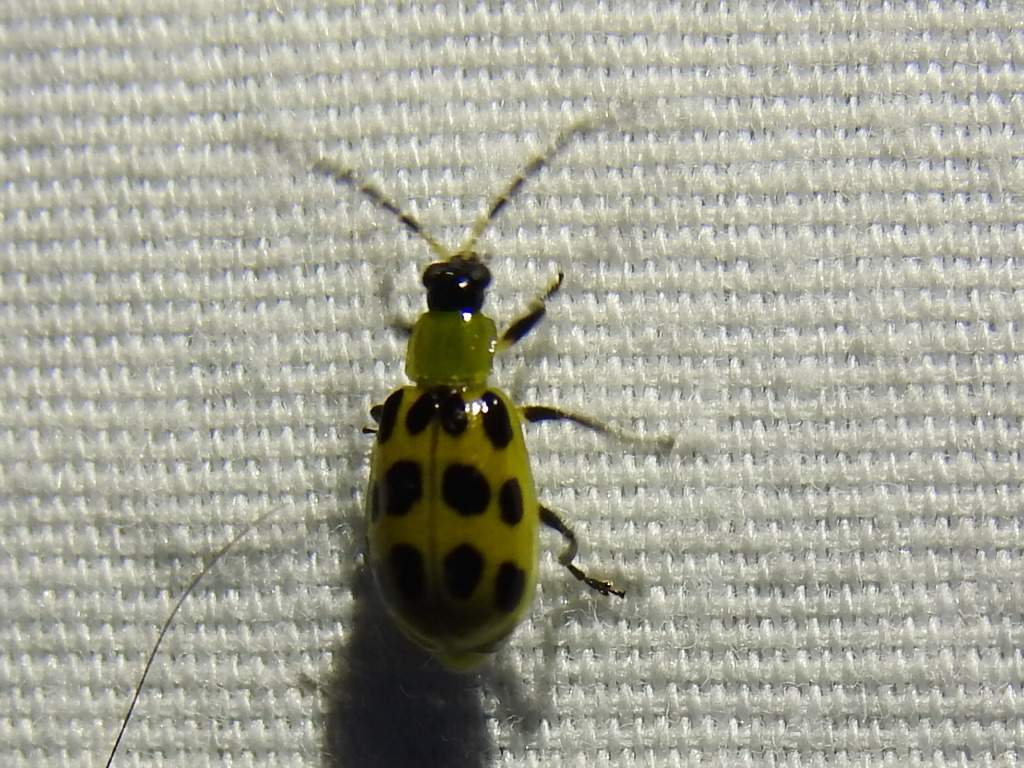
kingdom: Animalia
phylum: Arthropoda
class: Insecta
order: Coleoptera
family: Chrysomelidae
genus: Diabrotica
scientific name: Diabrotica undecimpunctata
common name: Spotted cucumber beetle
